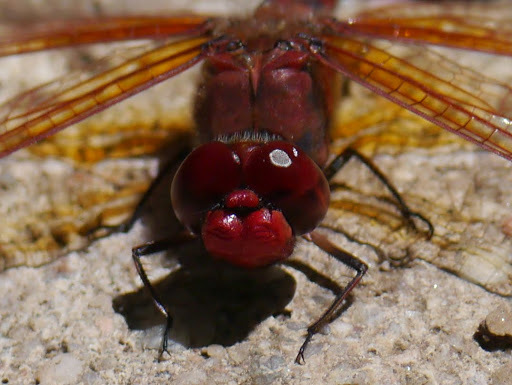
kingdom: Animalia
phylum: Arthropoda
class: Insecta
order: Odonata
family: Libellulidae
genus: Paltothemis
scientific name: Paltothemis lineatipes
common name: Red rock skimmer
